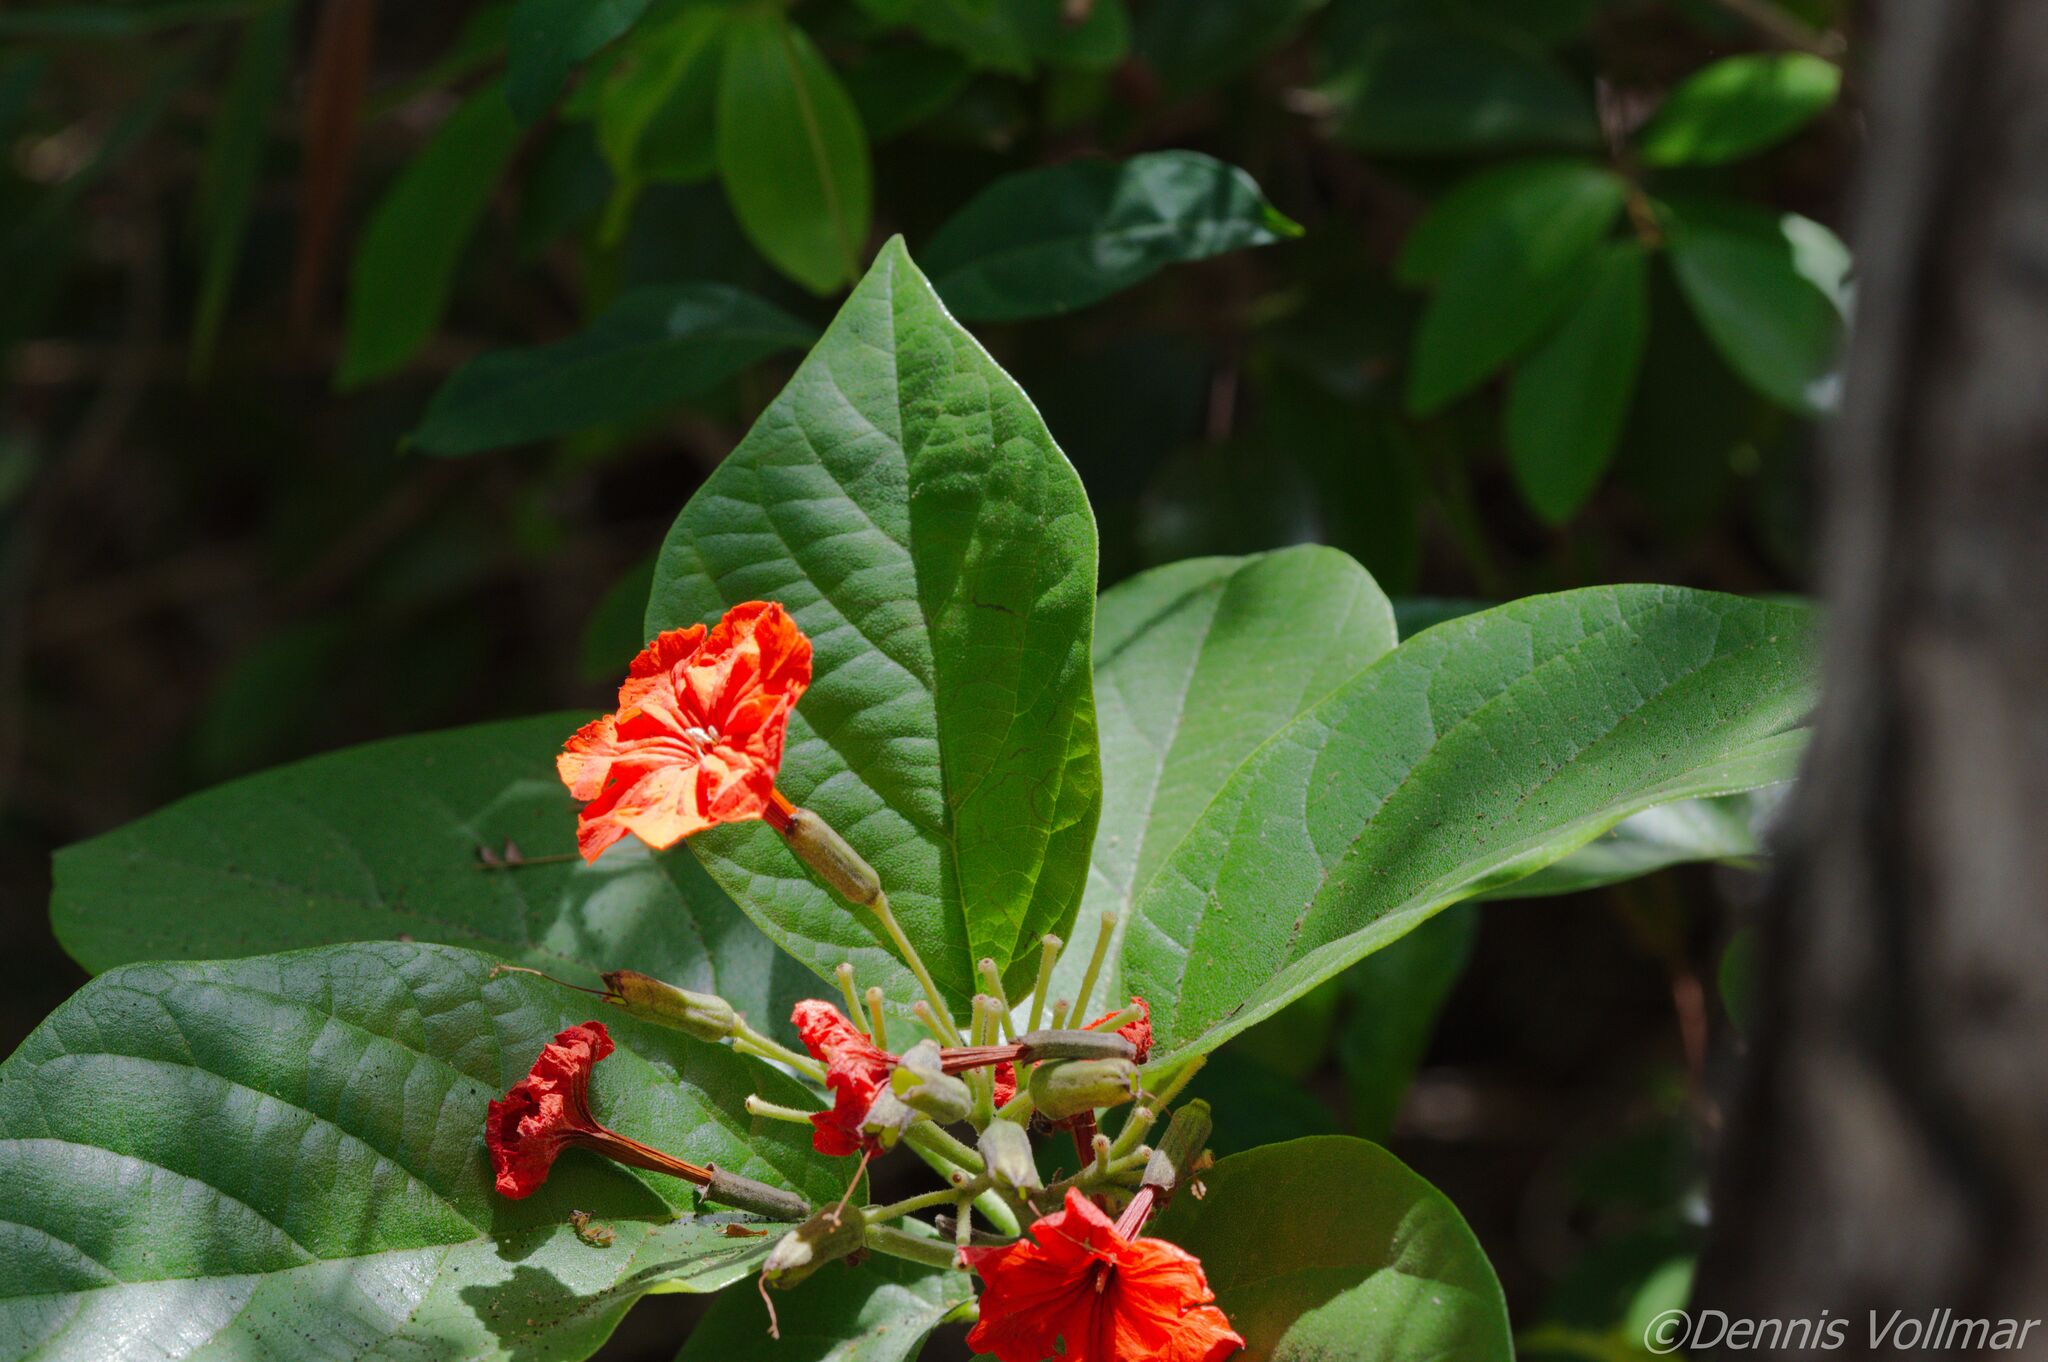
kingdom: Plantae
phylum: Tracheophyta
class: Magnoliopsida
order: Boraginales
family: Cordiaceae
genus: Cordia
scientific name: Cordia sebestena
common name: Largeleaf geigertree
